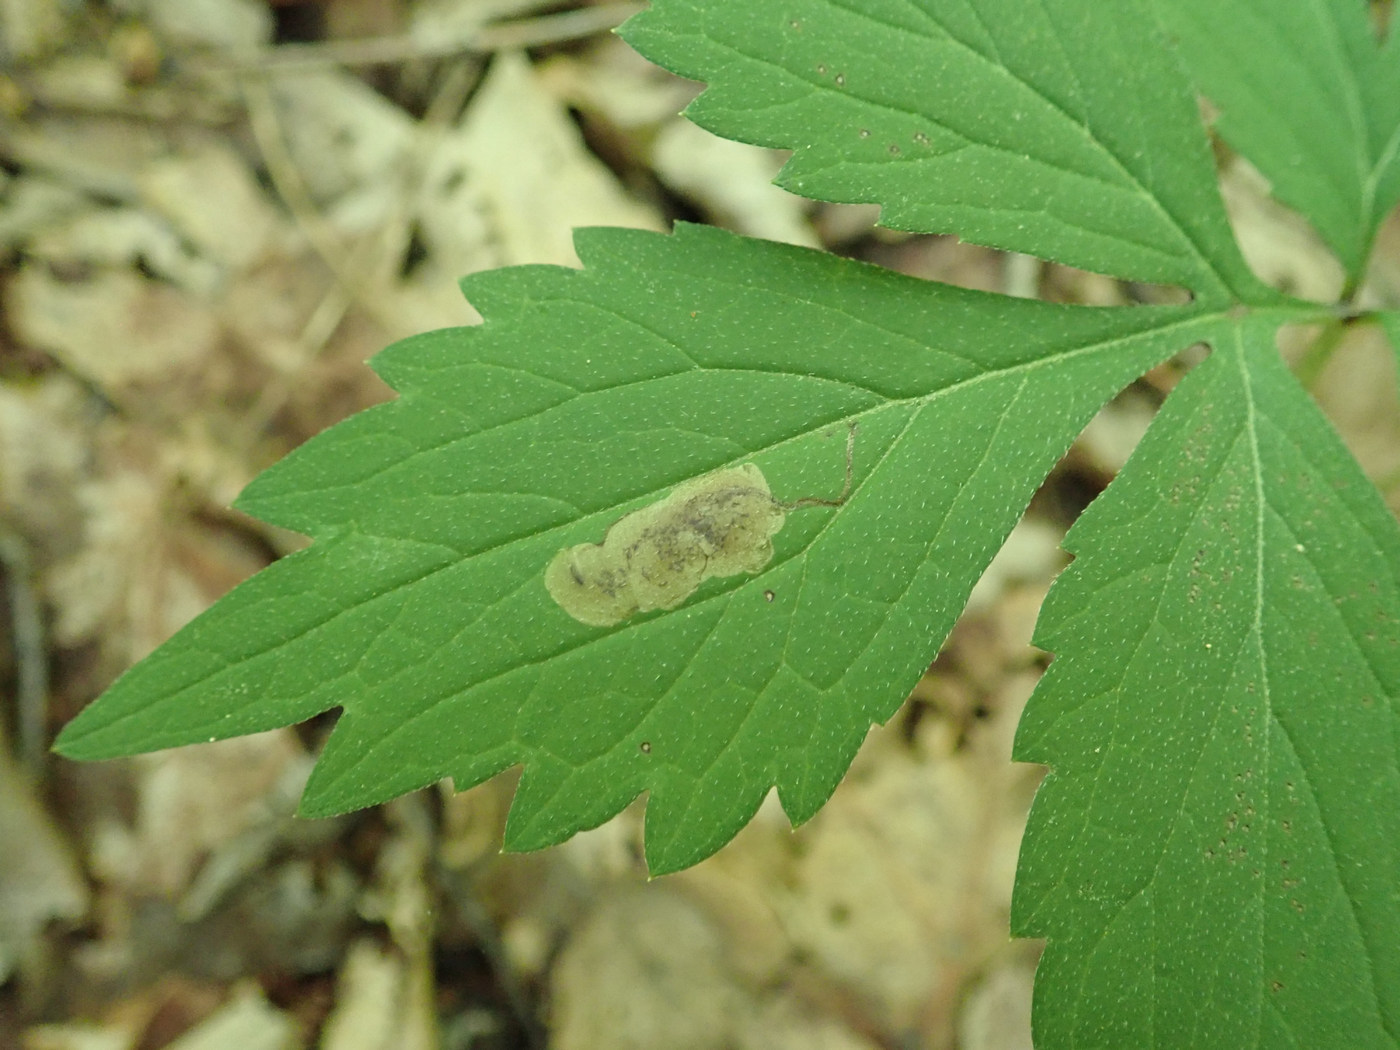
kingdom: Animalia
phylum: Arthropoda
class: Insecta
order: Diptera
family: Agromyzidae
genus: Phytomyza
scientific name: Phytomyza hydrophyllivora
